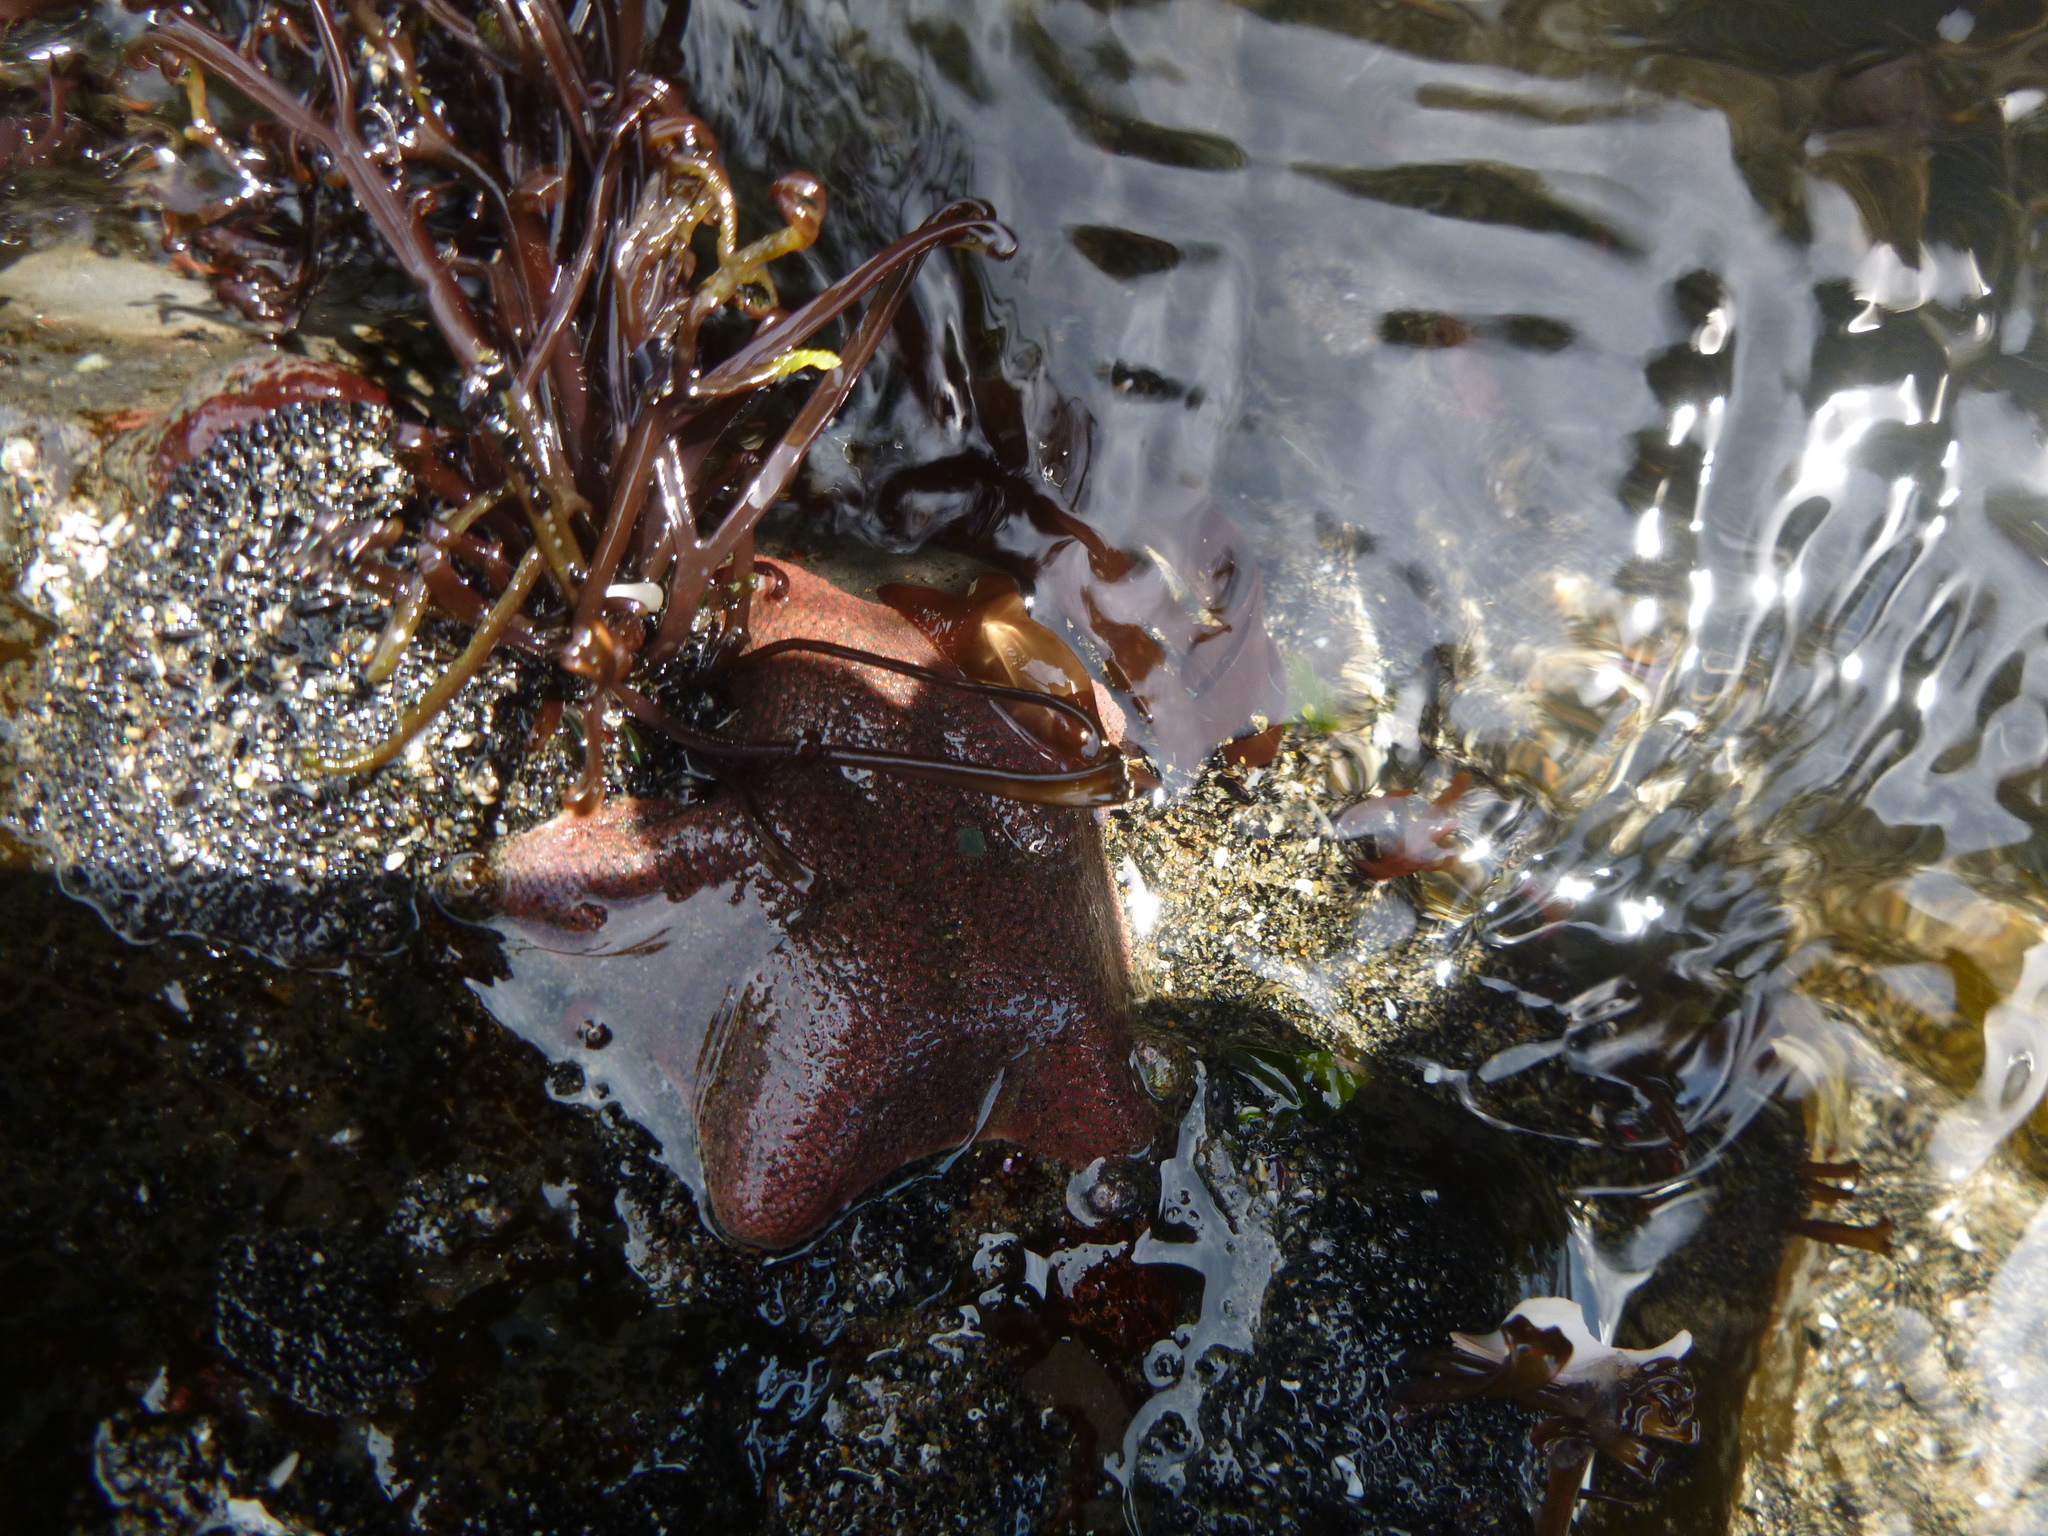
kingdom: Animalia
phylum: Echinodermata
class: Asteroidea
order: Valvatida
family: Asterinidae
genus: Patiriella
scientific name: Patiriella regularis
